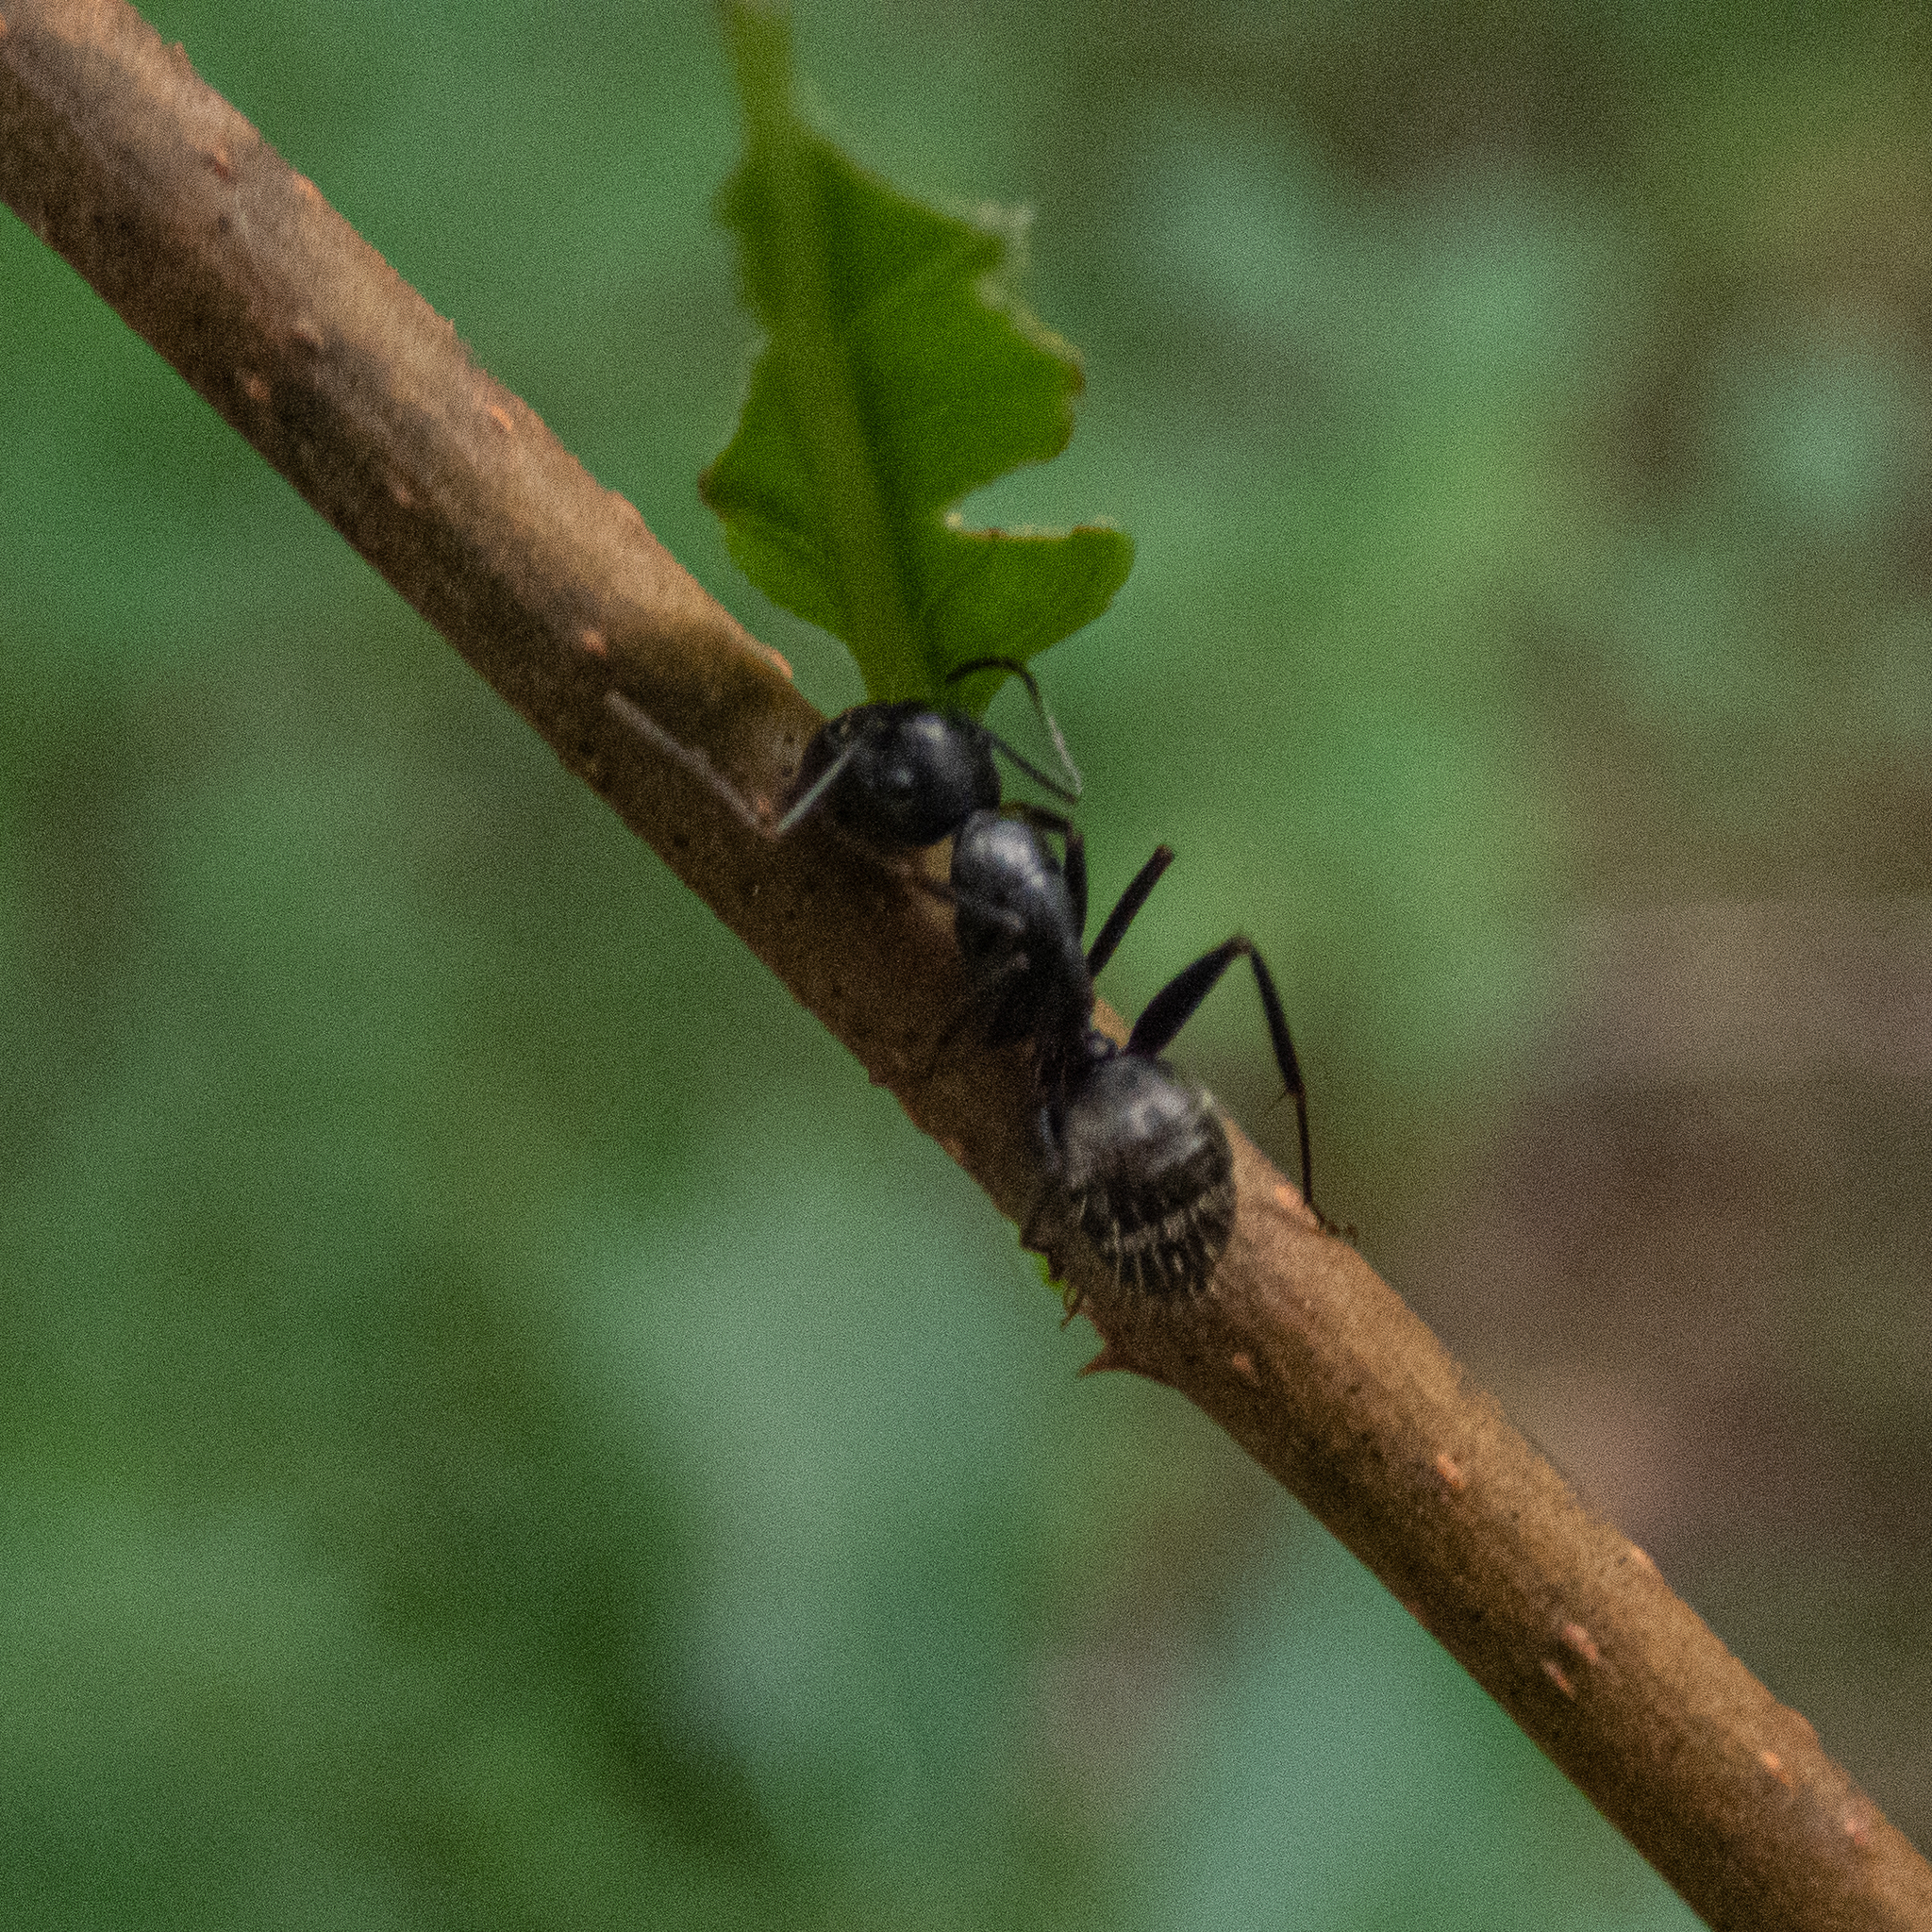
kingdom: Animalia
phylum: Arthropoda
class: Insecta
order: Hymenoptera
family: Formicidae
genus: Camponotus
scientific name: Camponotus pennsylvanicus
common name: Black carpenter ant
